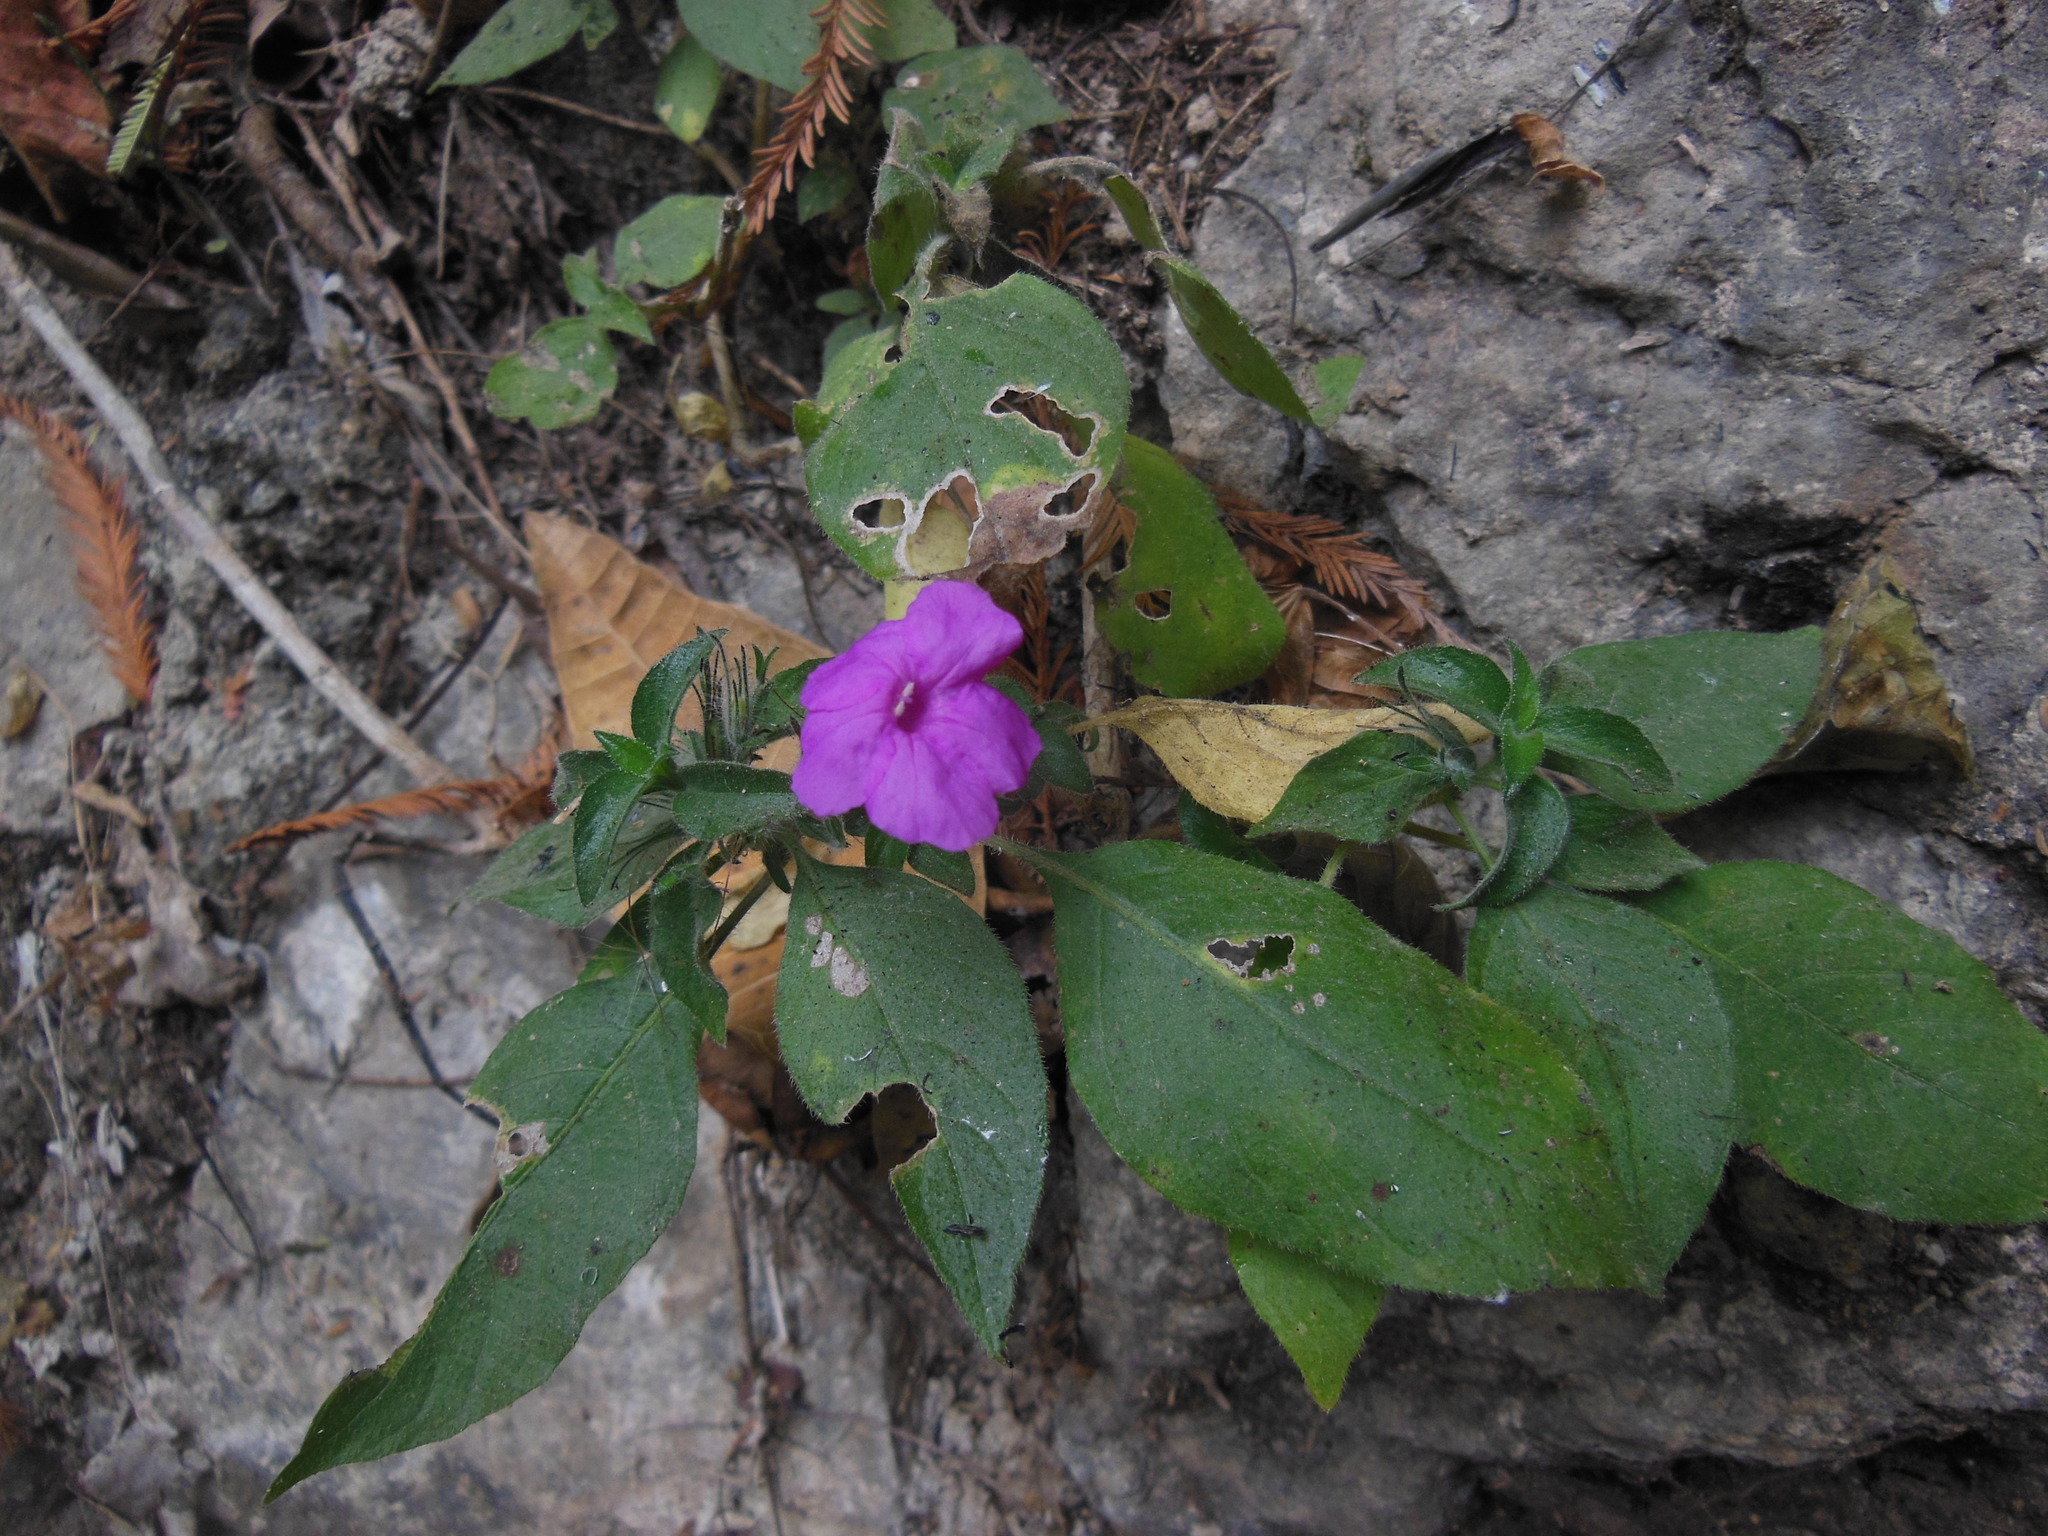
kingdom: Plantae
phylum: Tracheophyta
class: Magnoliopsida
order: Lamiales
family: Acanthaceae
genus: Ruellia
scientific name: Ruellia matagalpae
